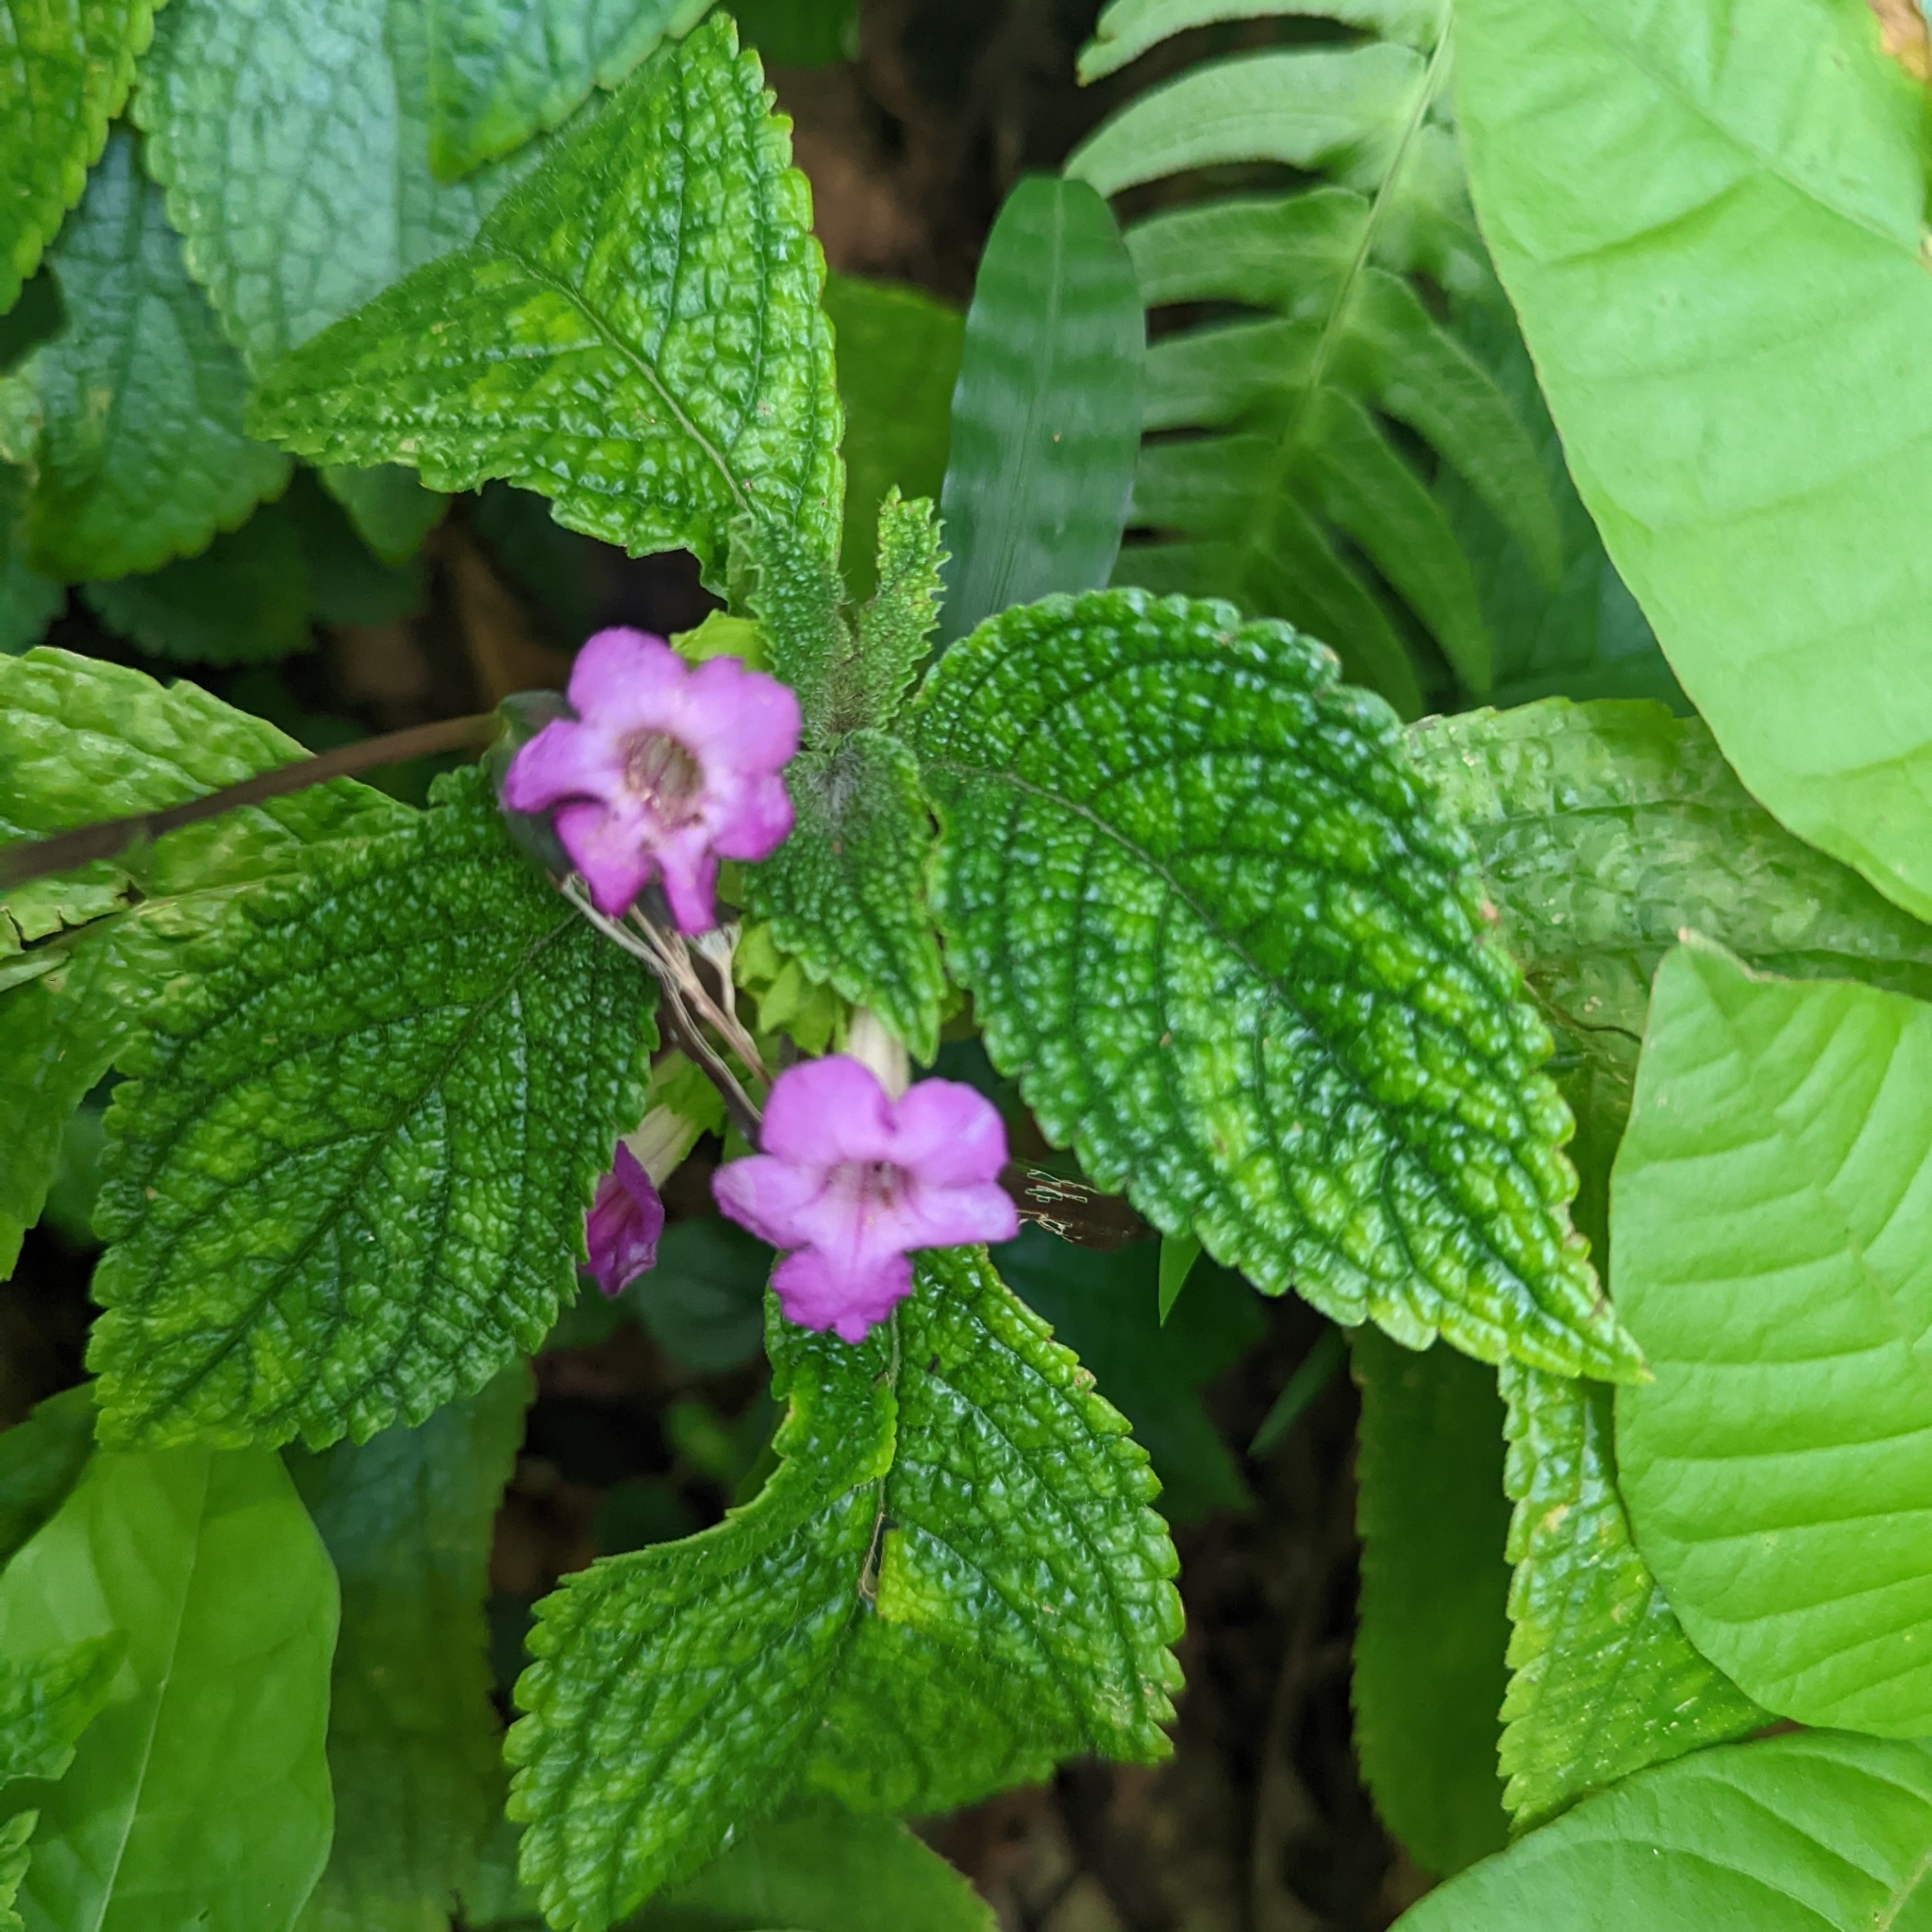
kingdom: Plantae
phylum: Tracheophyta
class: Magnoliopsida
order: Lamiales
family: Gesneriaceae
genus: Chrysothemis
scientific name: Chrysothemis melittifolia
